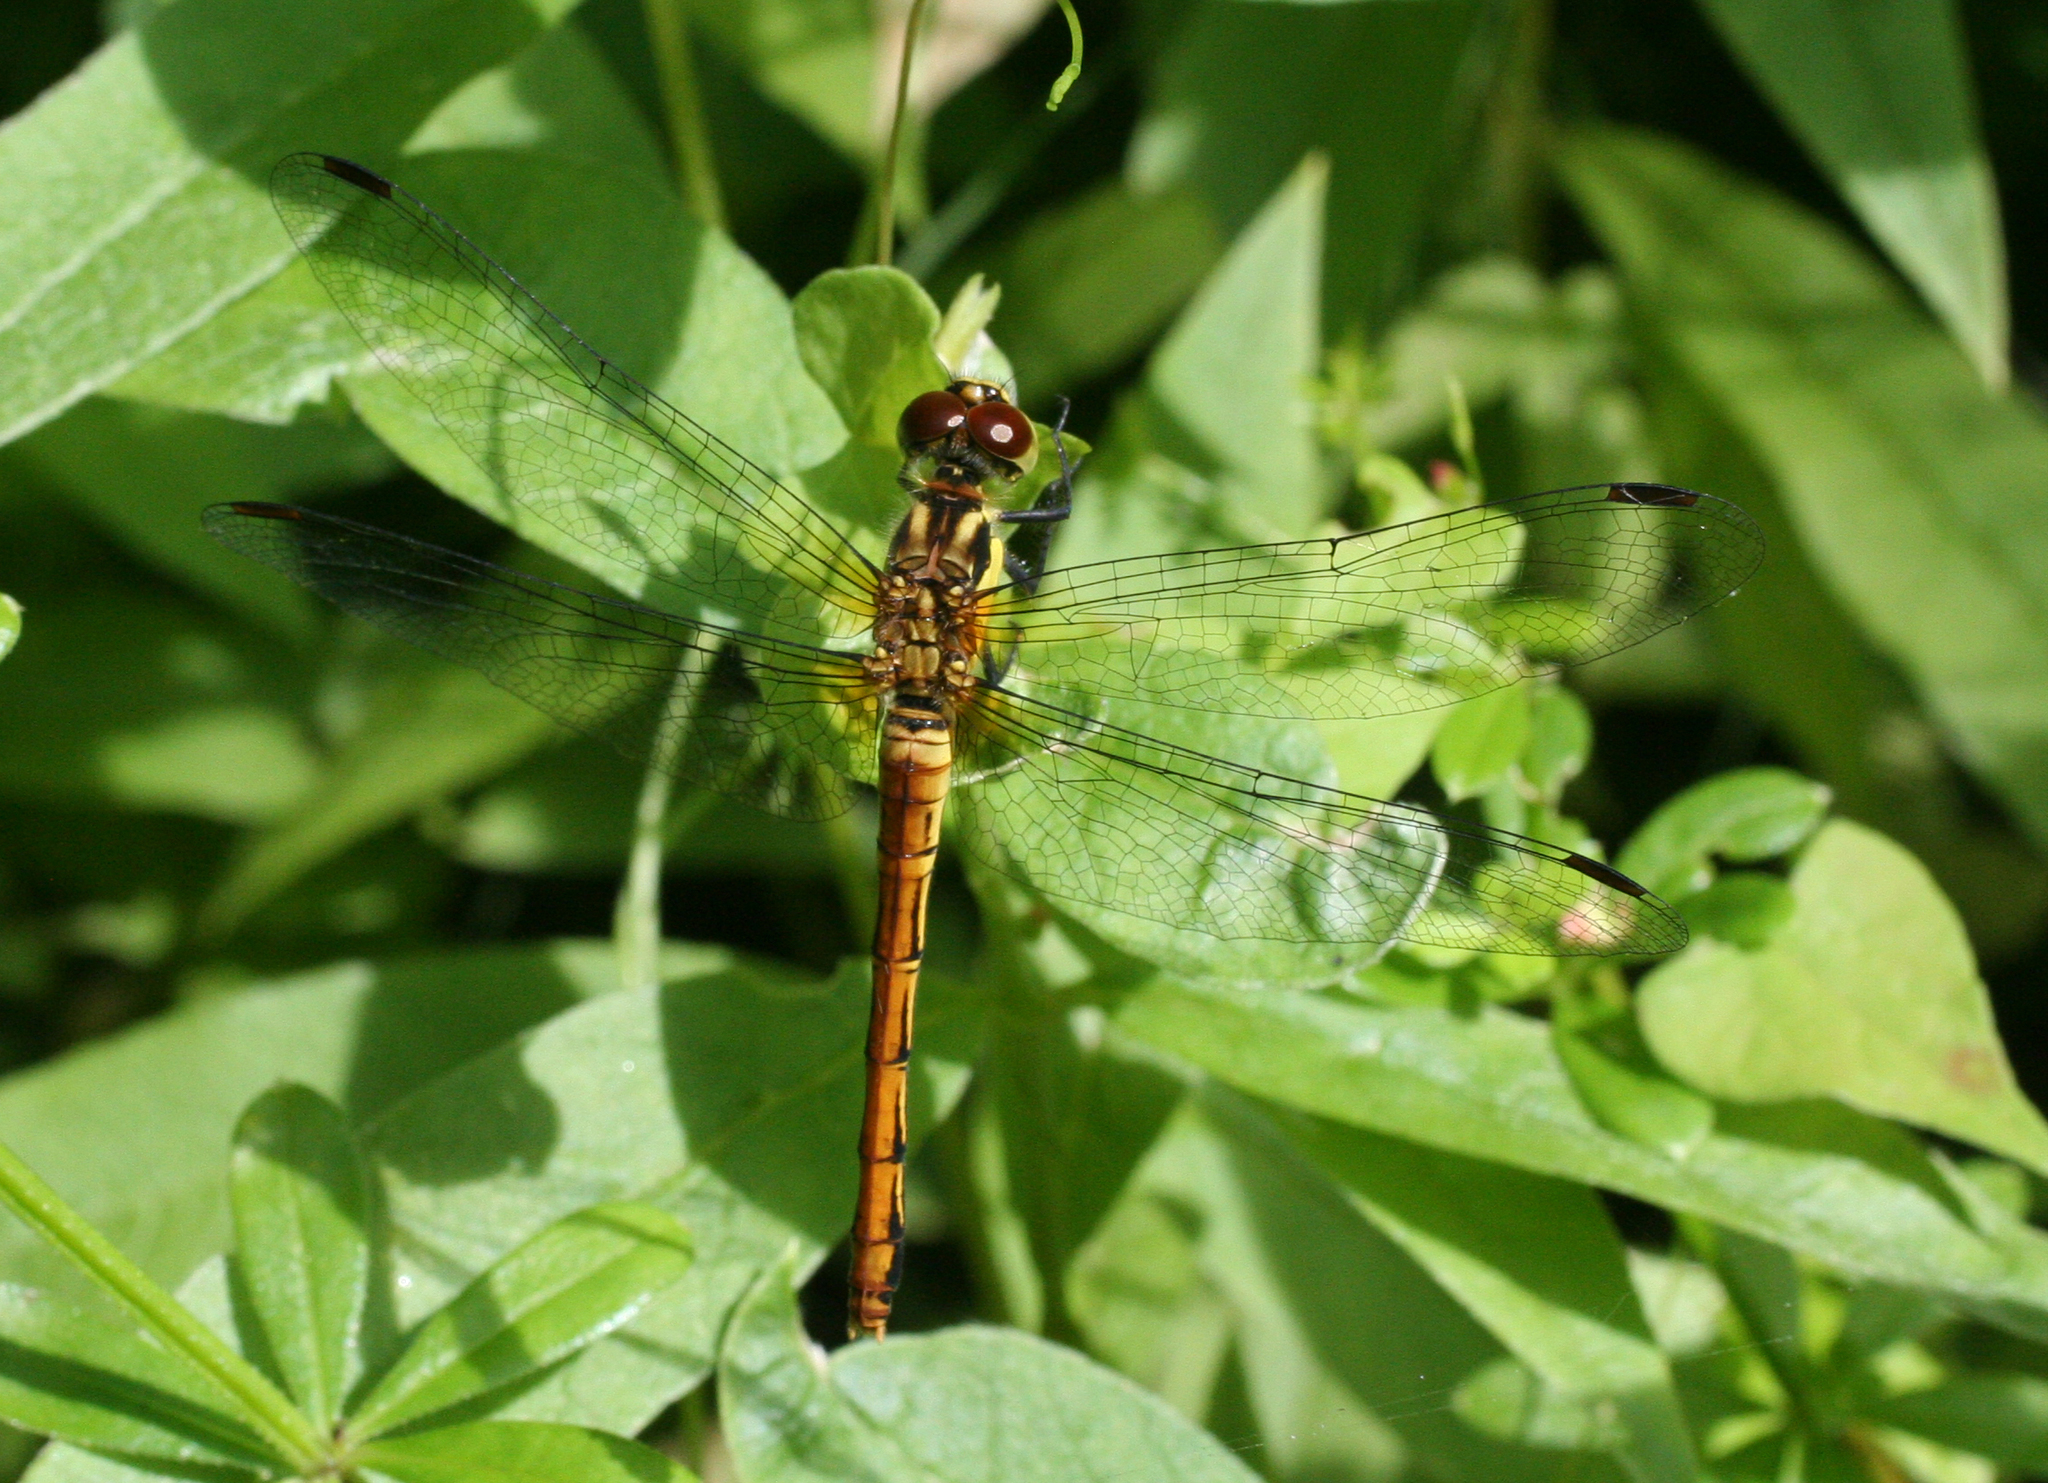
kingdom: Animalia
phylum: Arthropoda
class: Insecta
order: Odonata
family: Libellulidae
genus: Sympetrum
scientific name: Sympetrum eroticum
